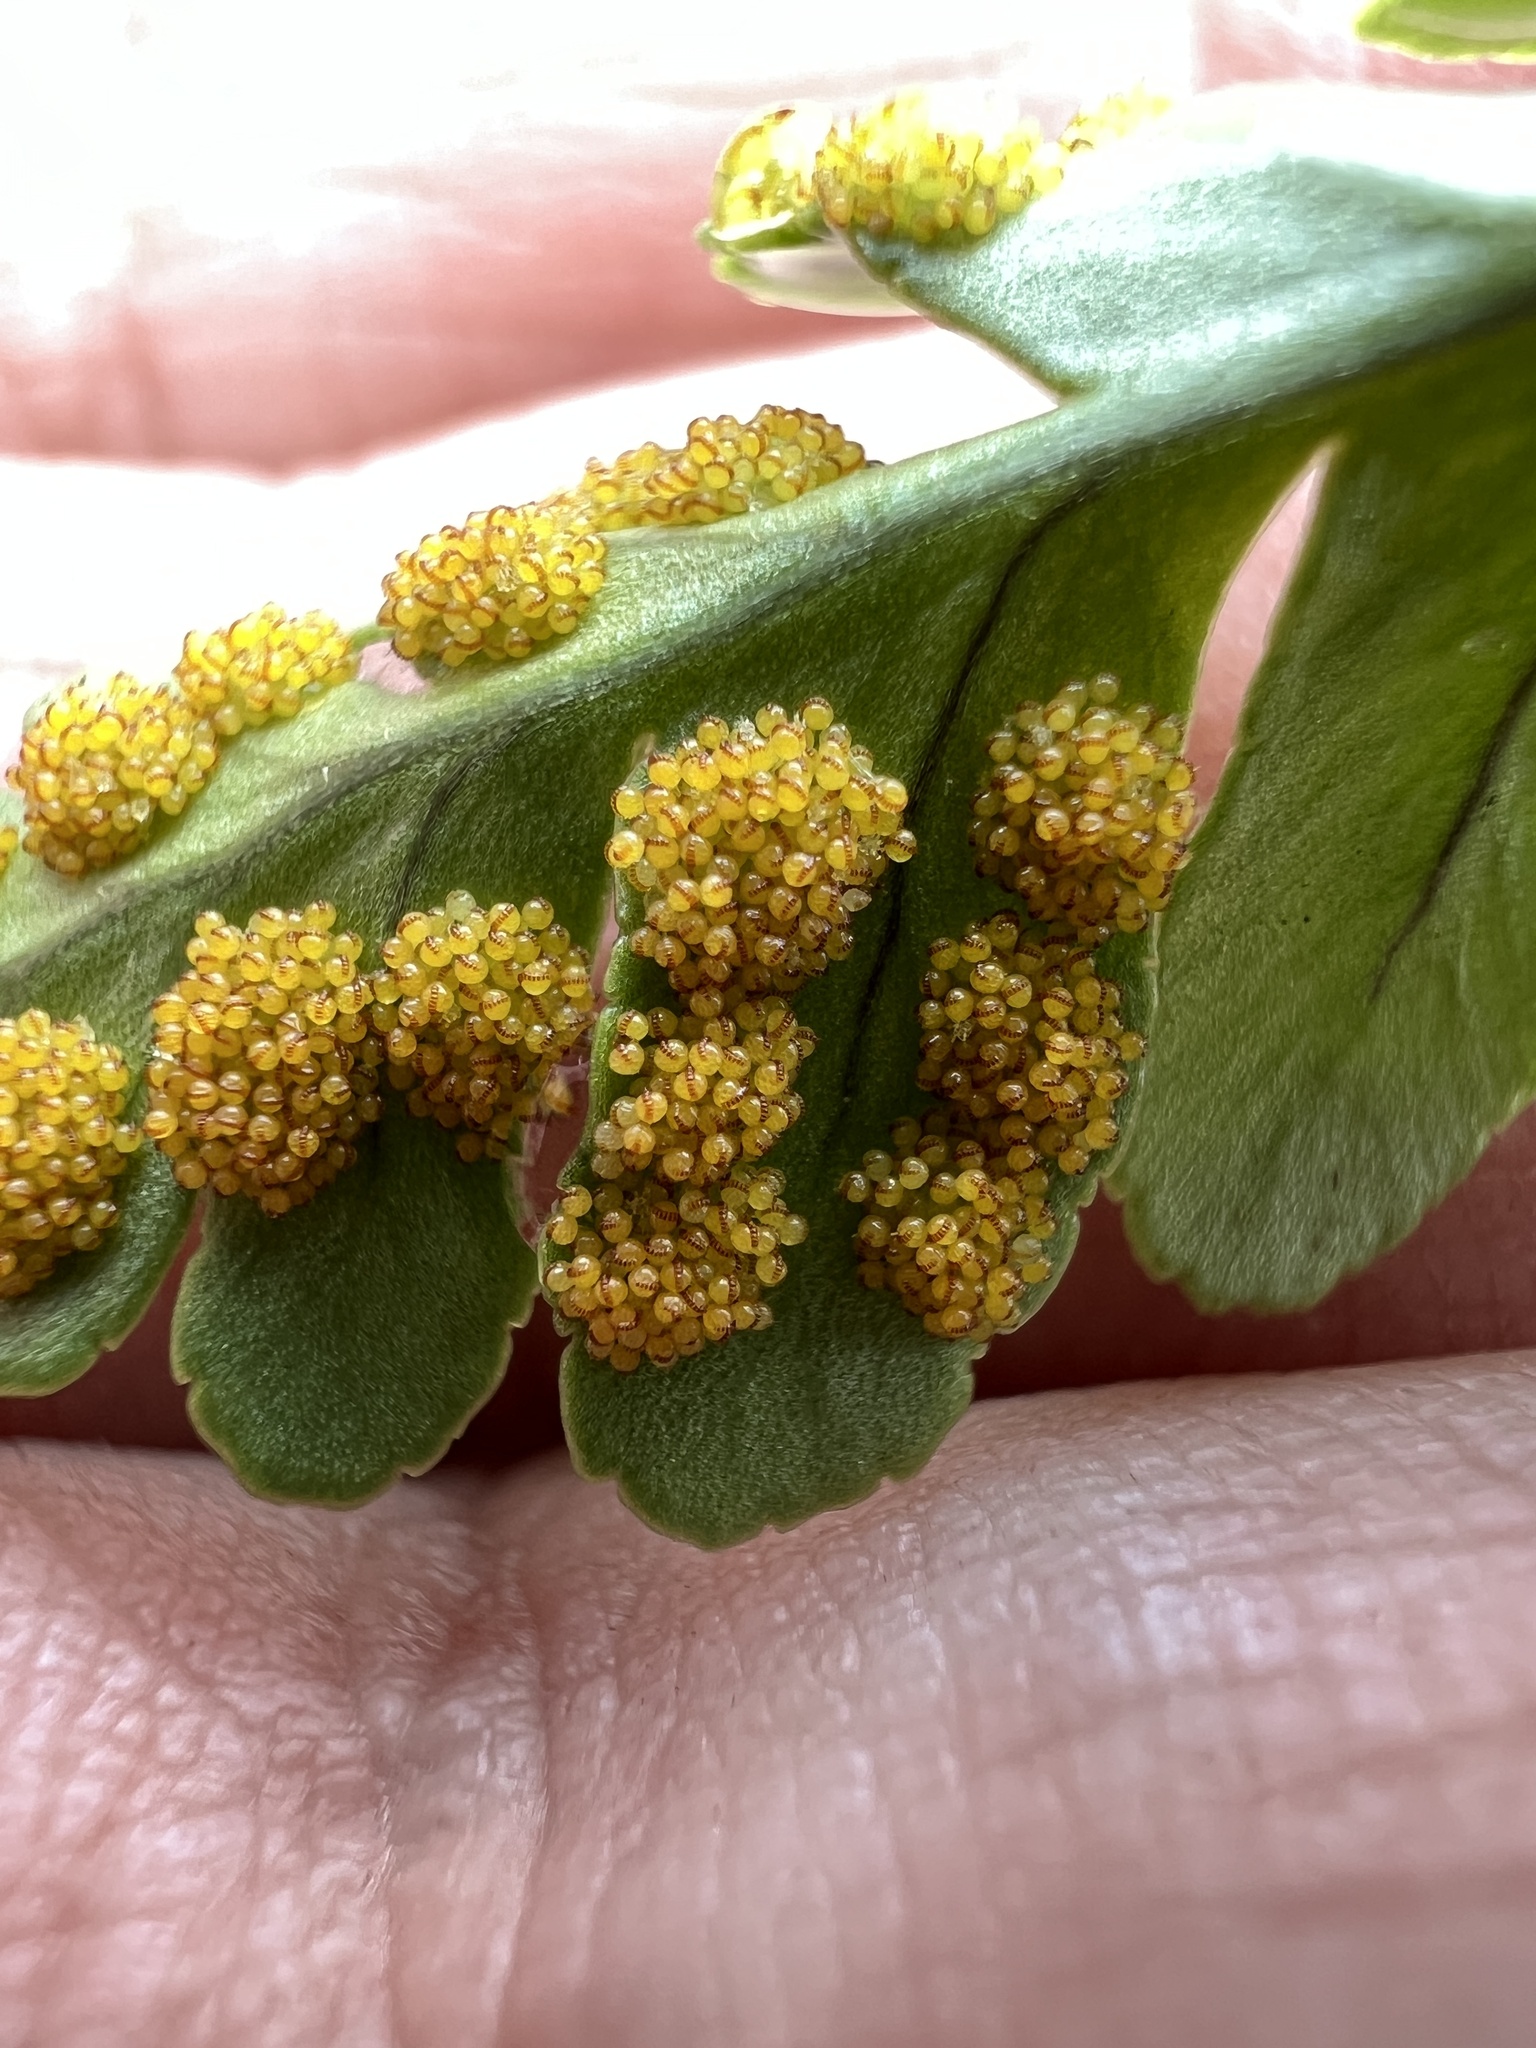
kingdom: Plantae
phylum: Tracheophyta
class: Polypodiopsida
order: Polypodiales
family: Polypodiaceae
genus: Polypodium
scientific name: Polypodium amorphum
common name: Pacific polypody
